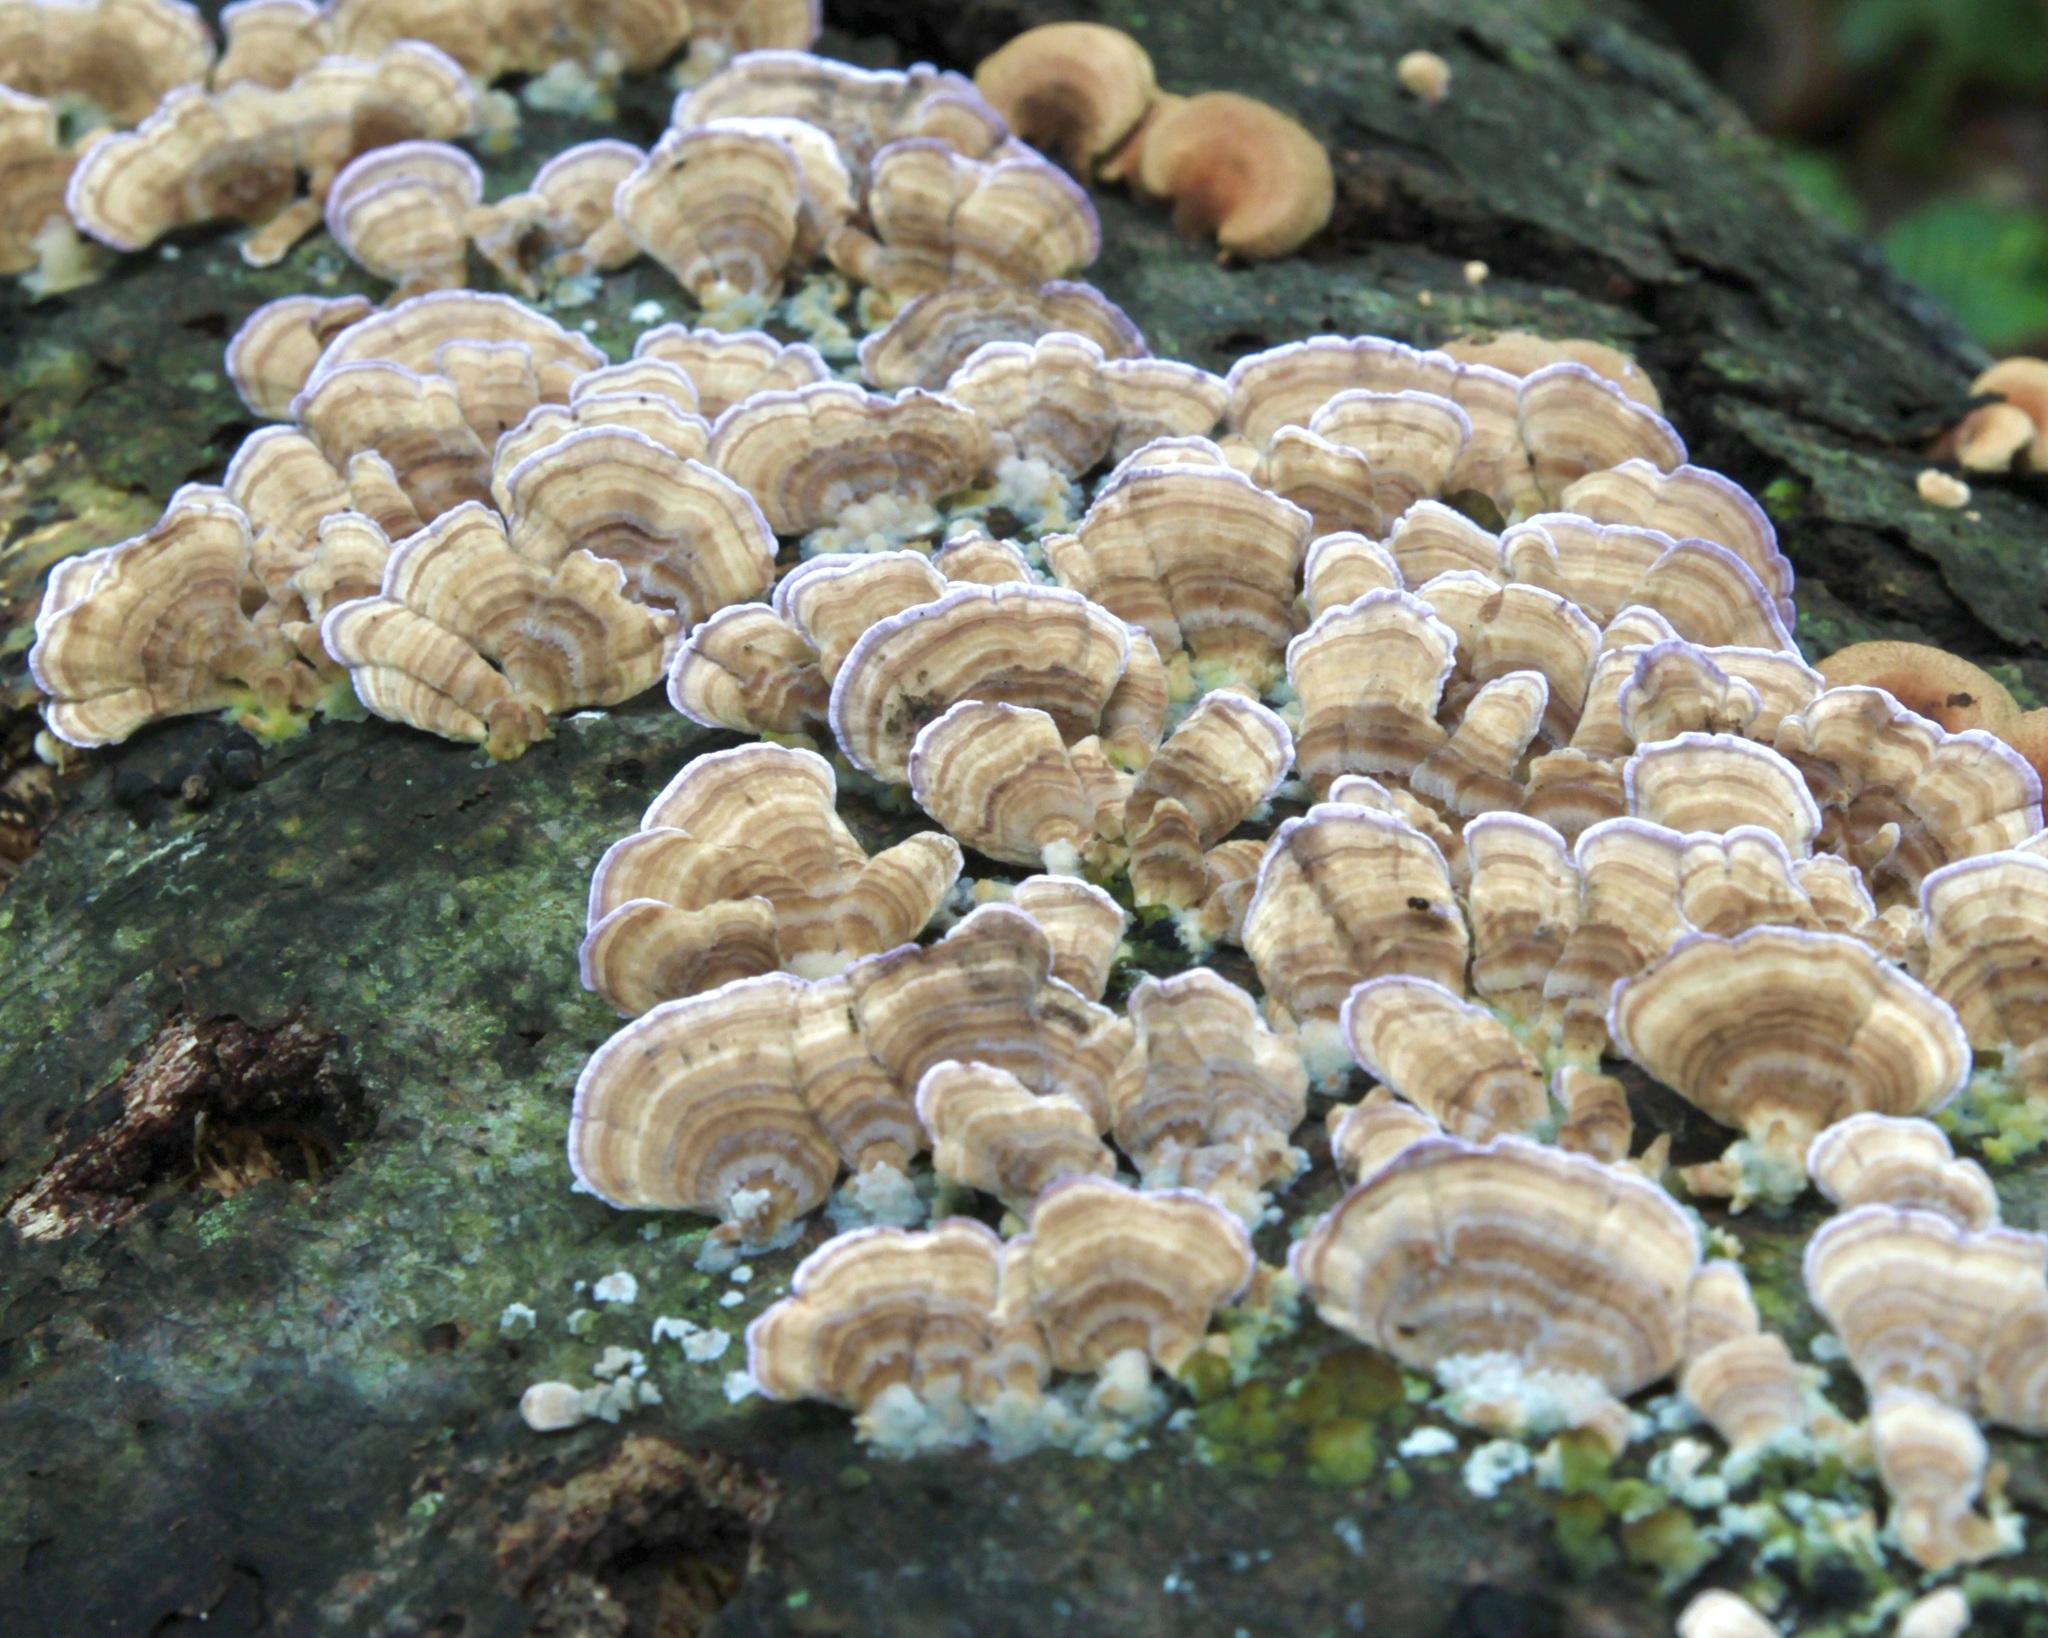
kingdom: Fungi
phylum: Basidiomycota
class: Agaricomycetes
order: Hymenochaetales
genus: Trichaptum
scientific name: Trichaptum biforme
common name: Violet-toothed polypore
